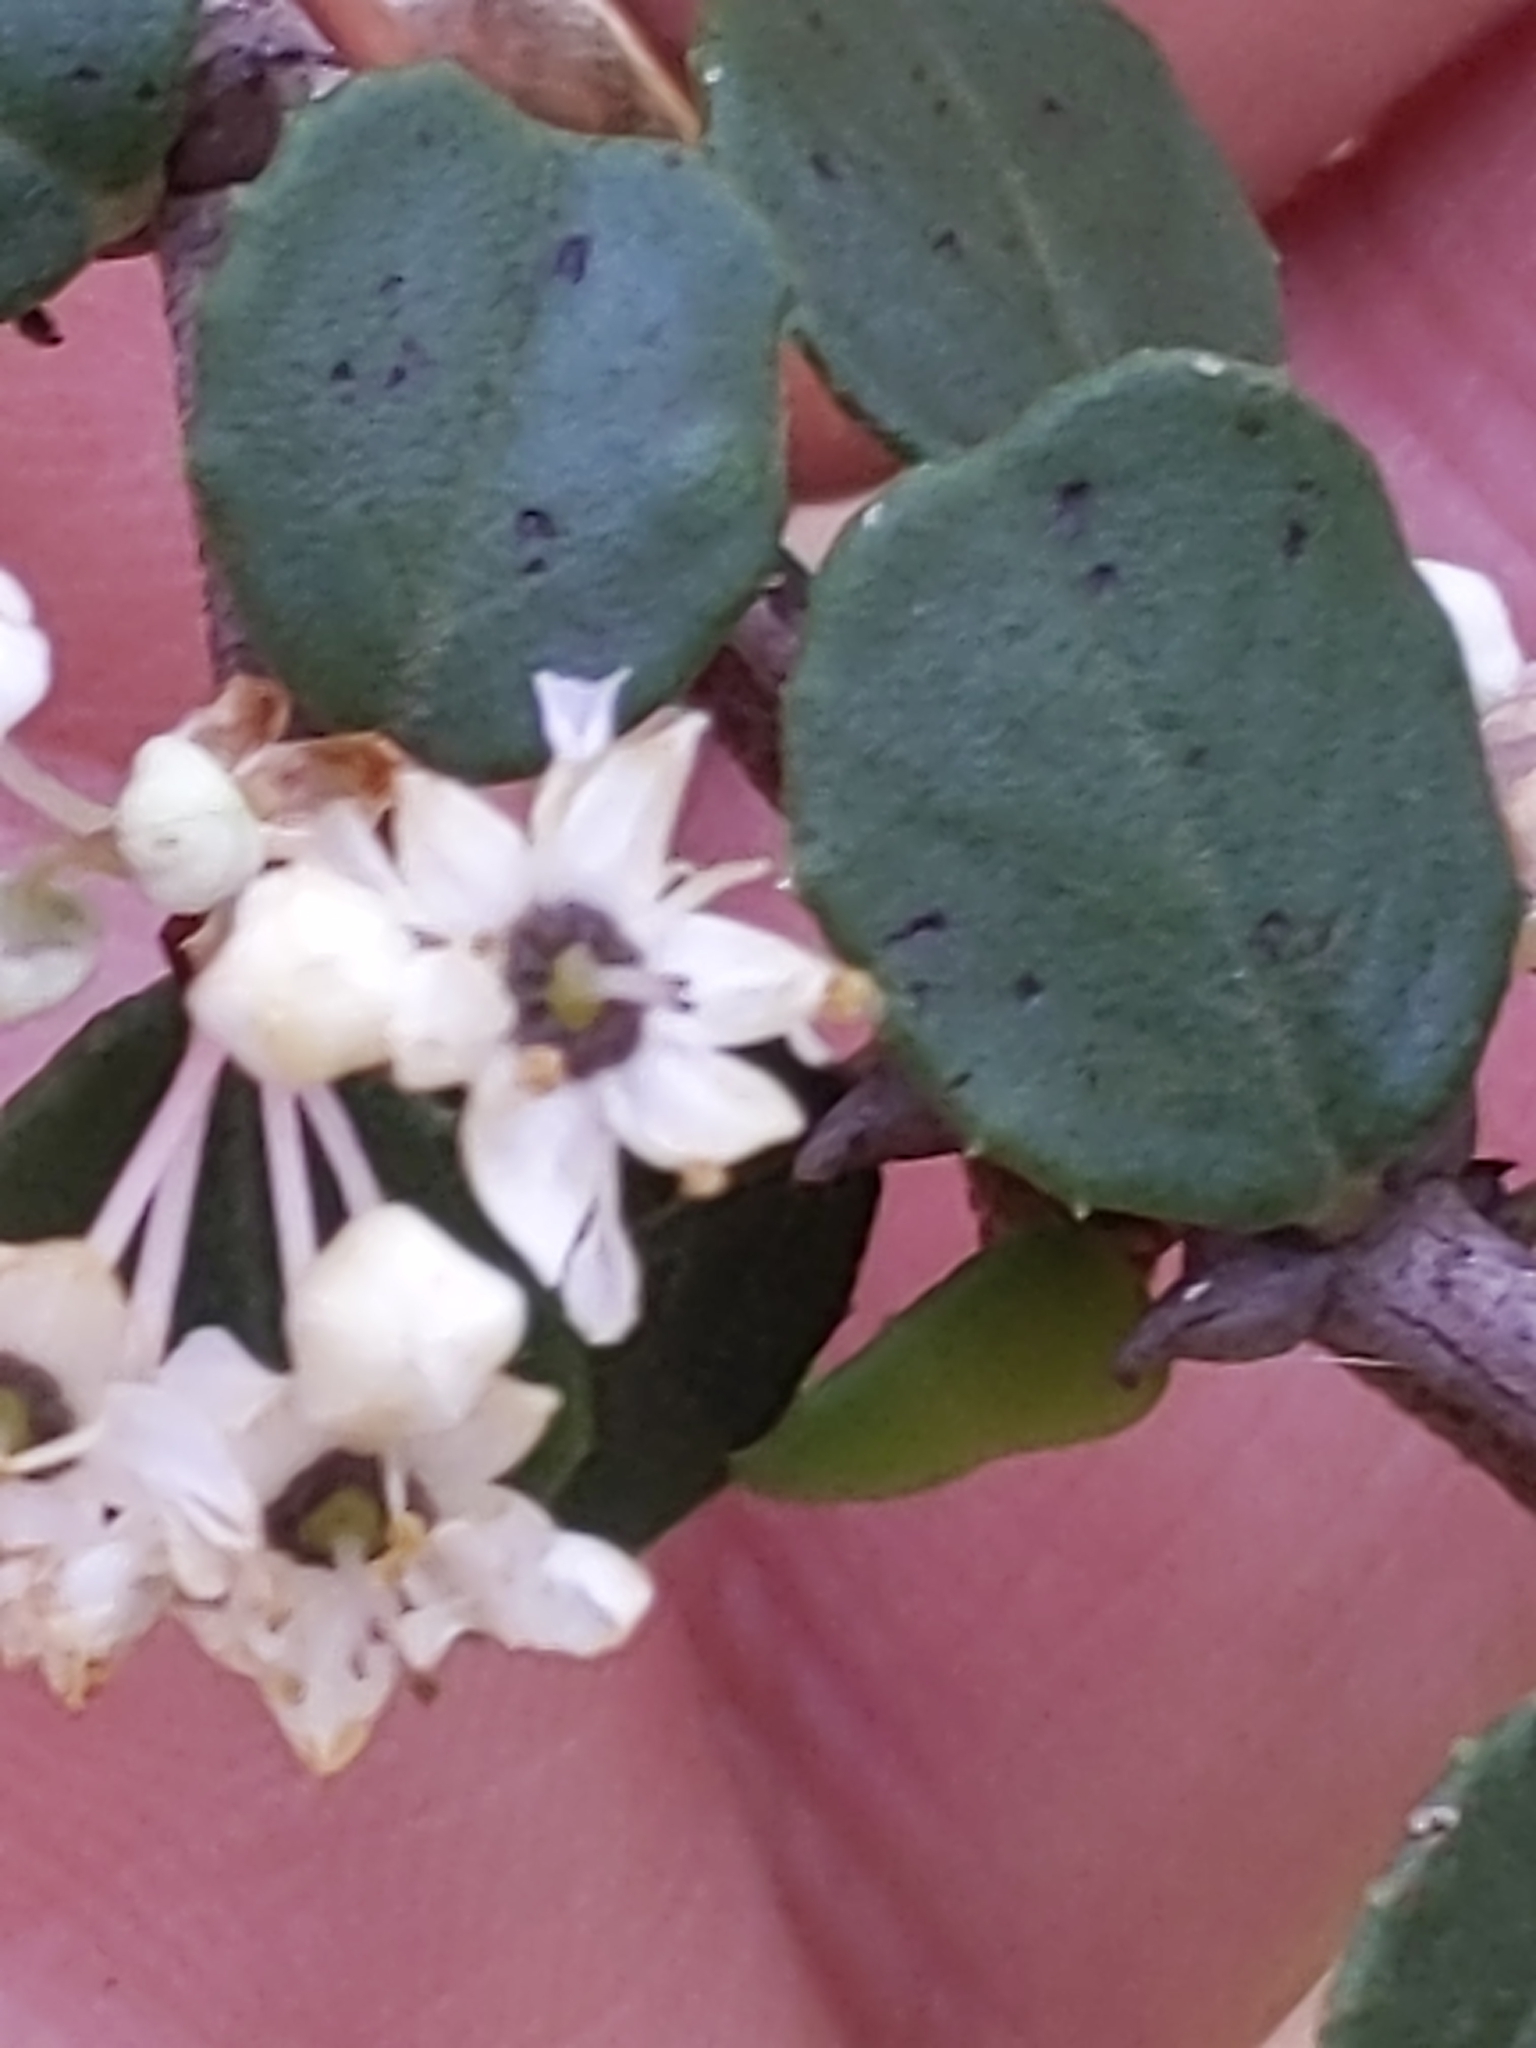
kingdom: Plantae
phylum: Tracheophyta
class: Magnoliopsida
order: Rosales
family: Rhamnaceae
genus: Ceanothus
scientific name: Ceanothus verrucosus
